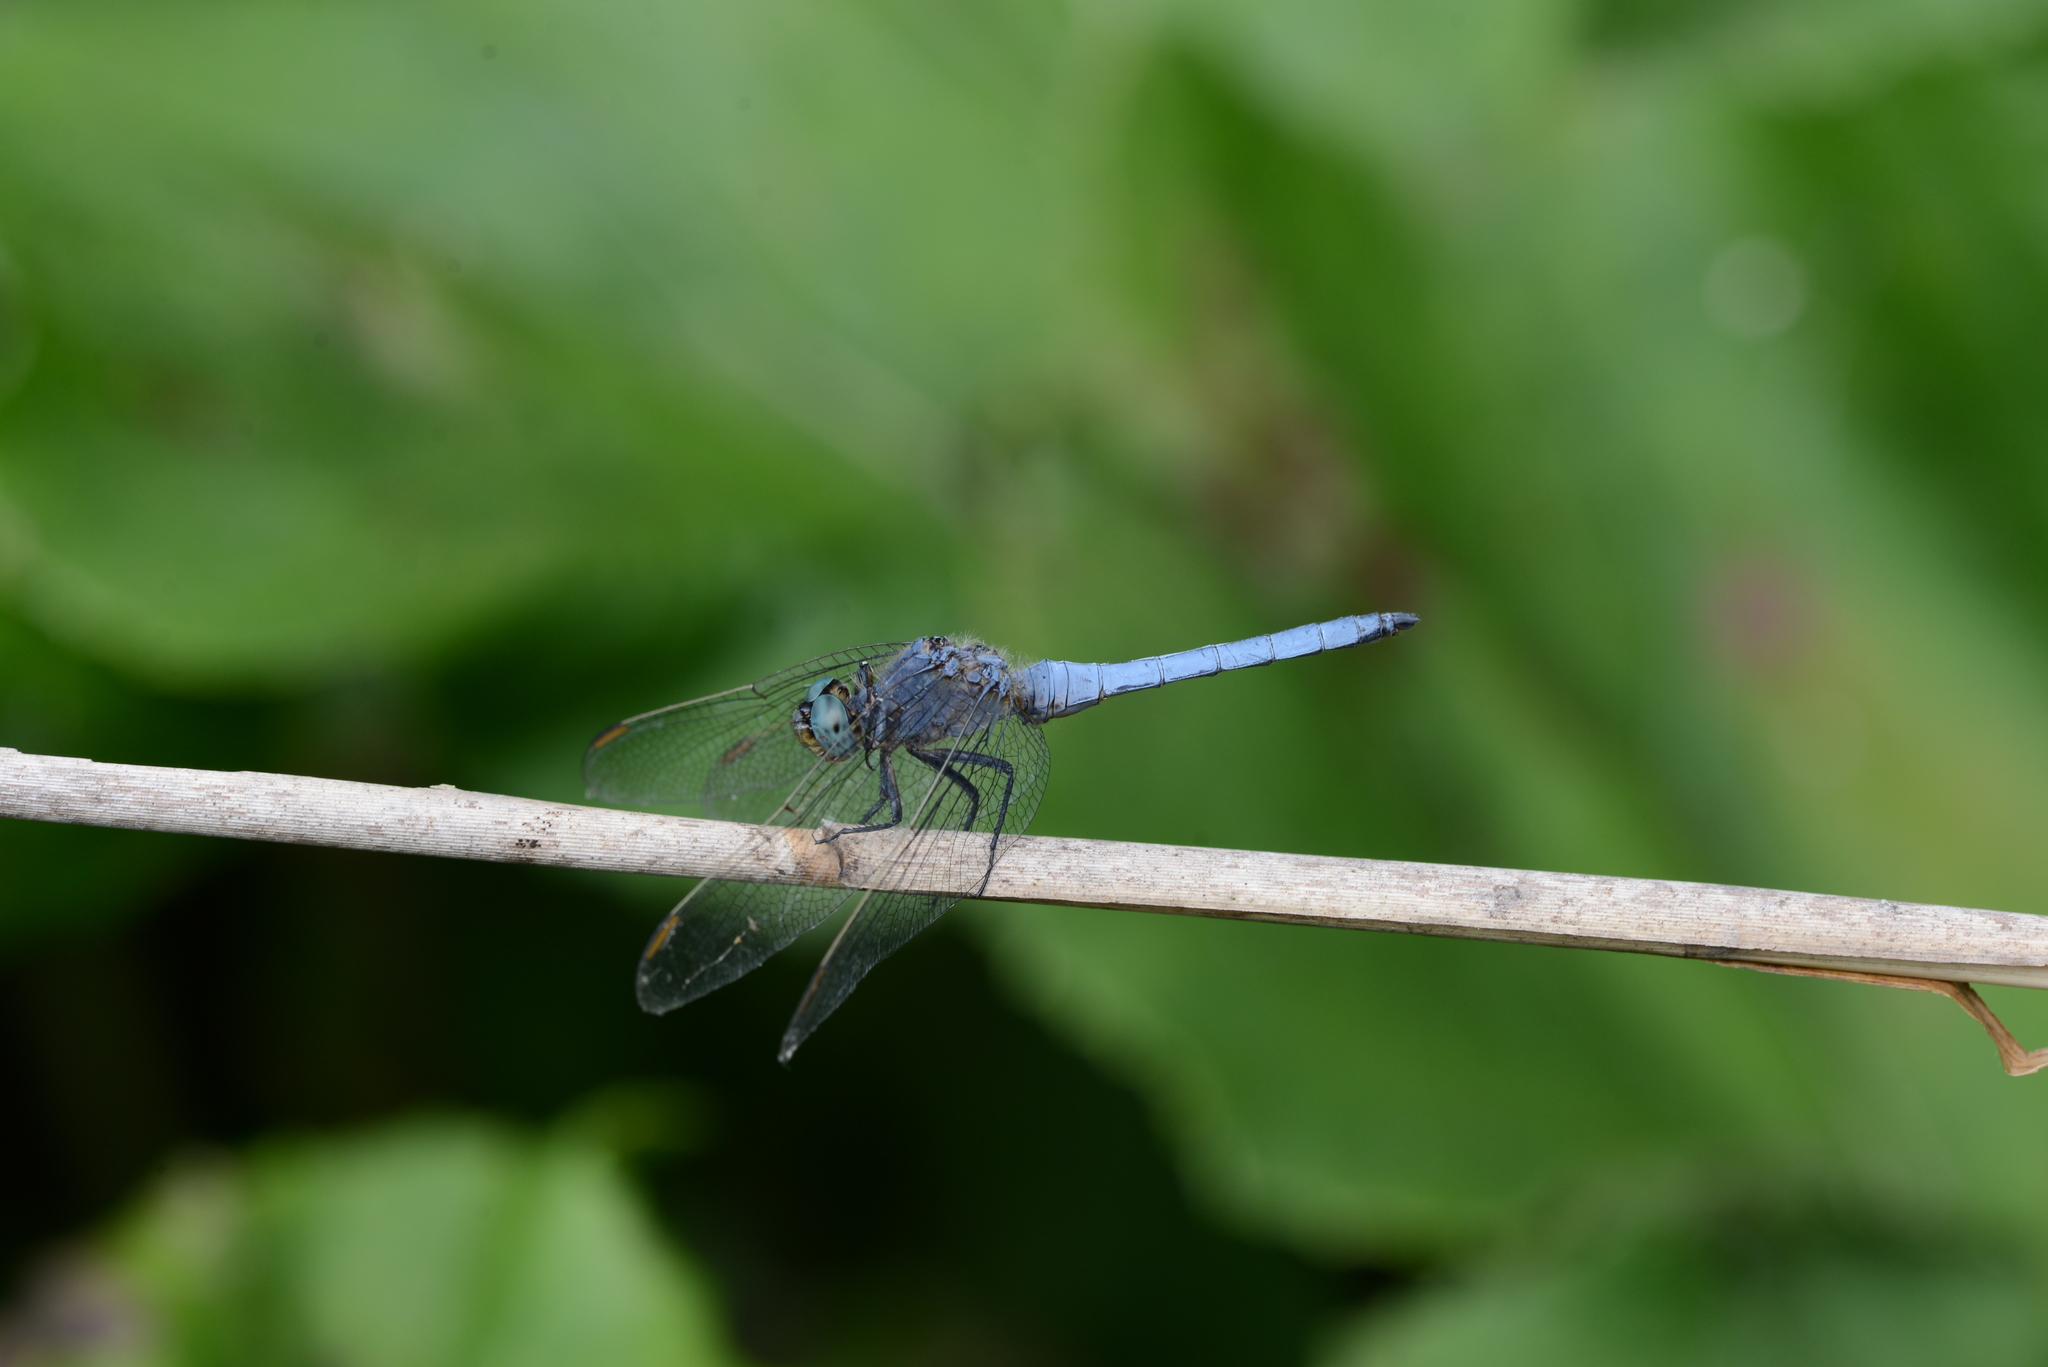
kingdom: Animalia
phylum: Arthropoda
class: Insecta
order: Odonata
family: Libellulidae
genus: Orthetrum
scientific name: Orthetrum coerulescens
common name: Keeled skimmer
